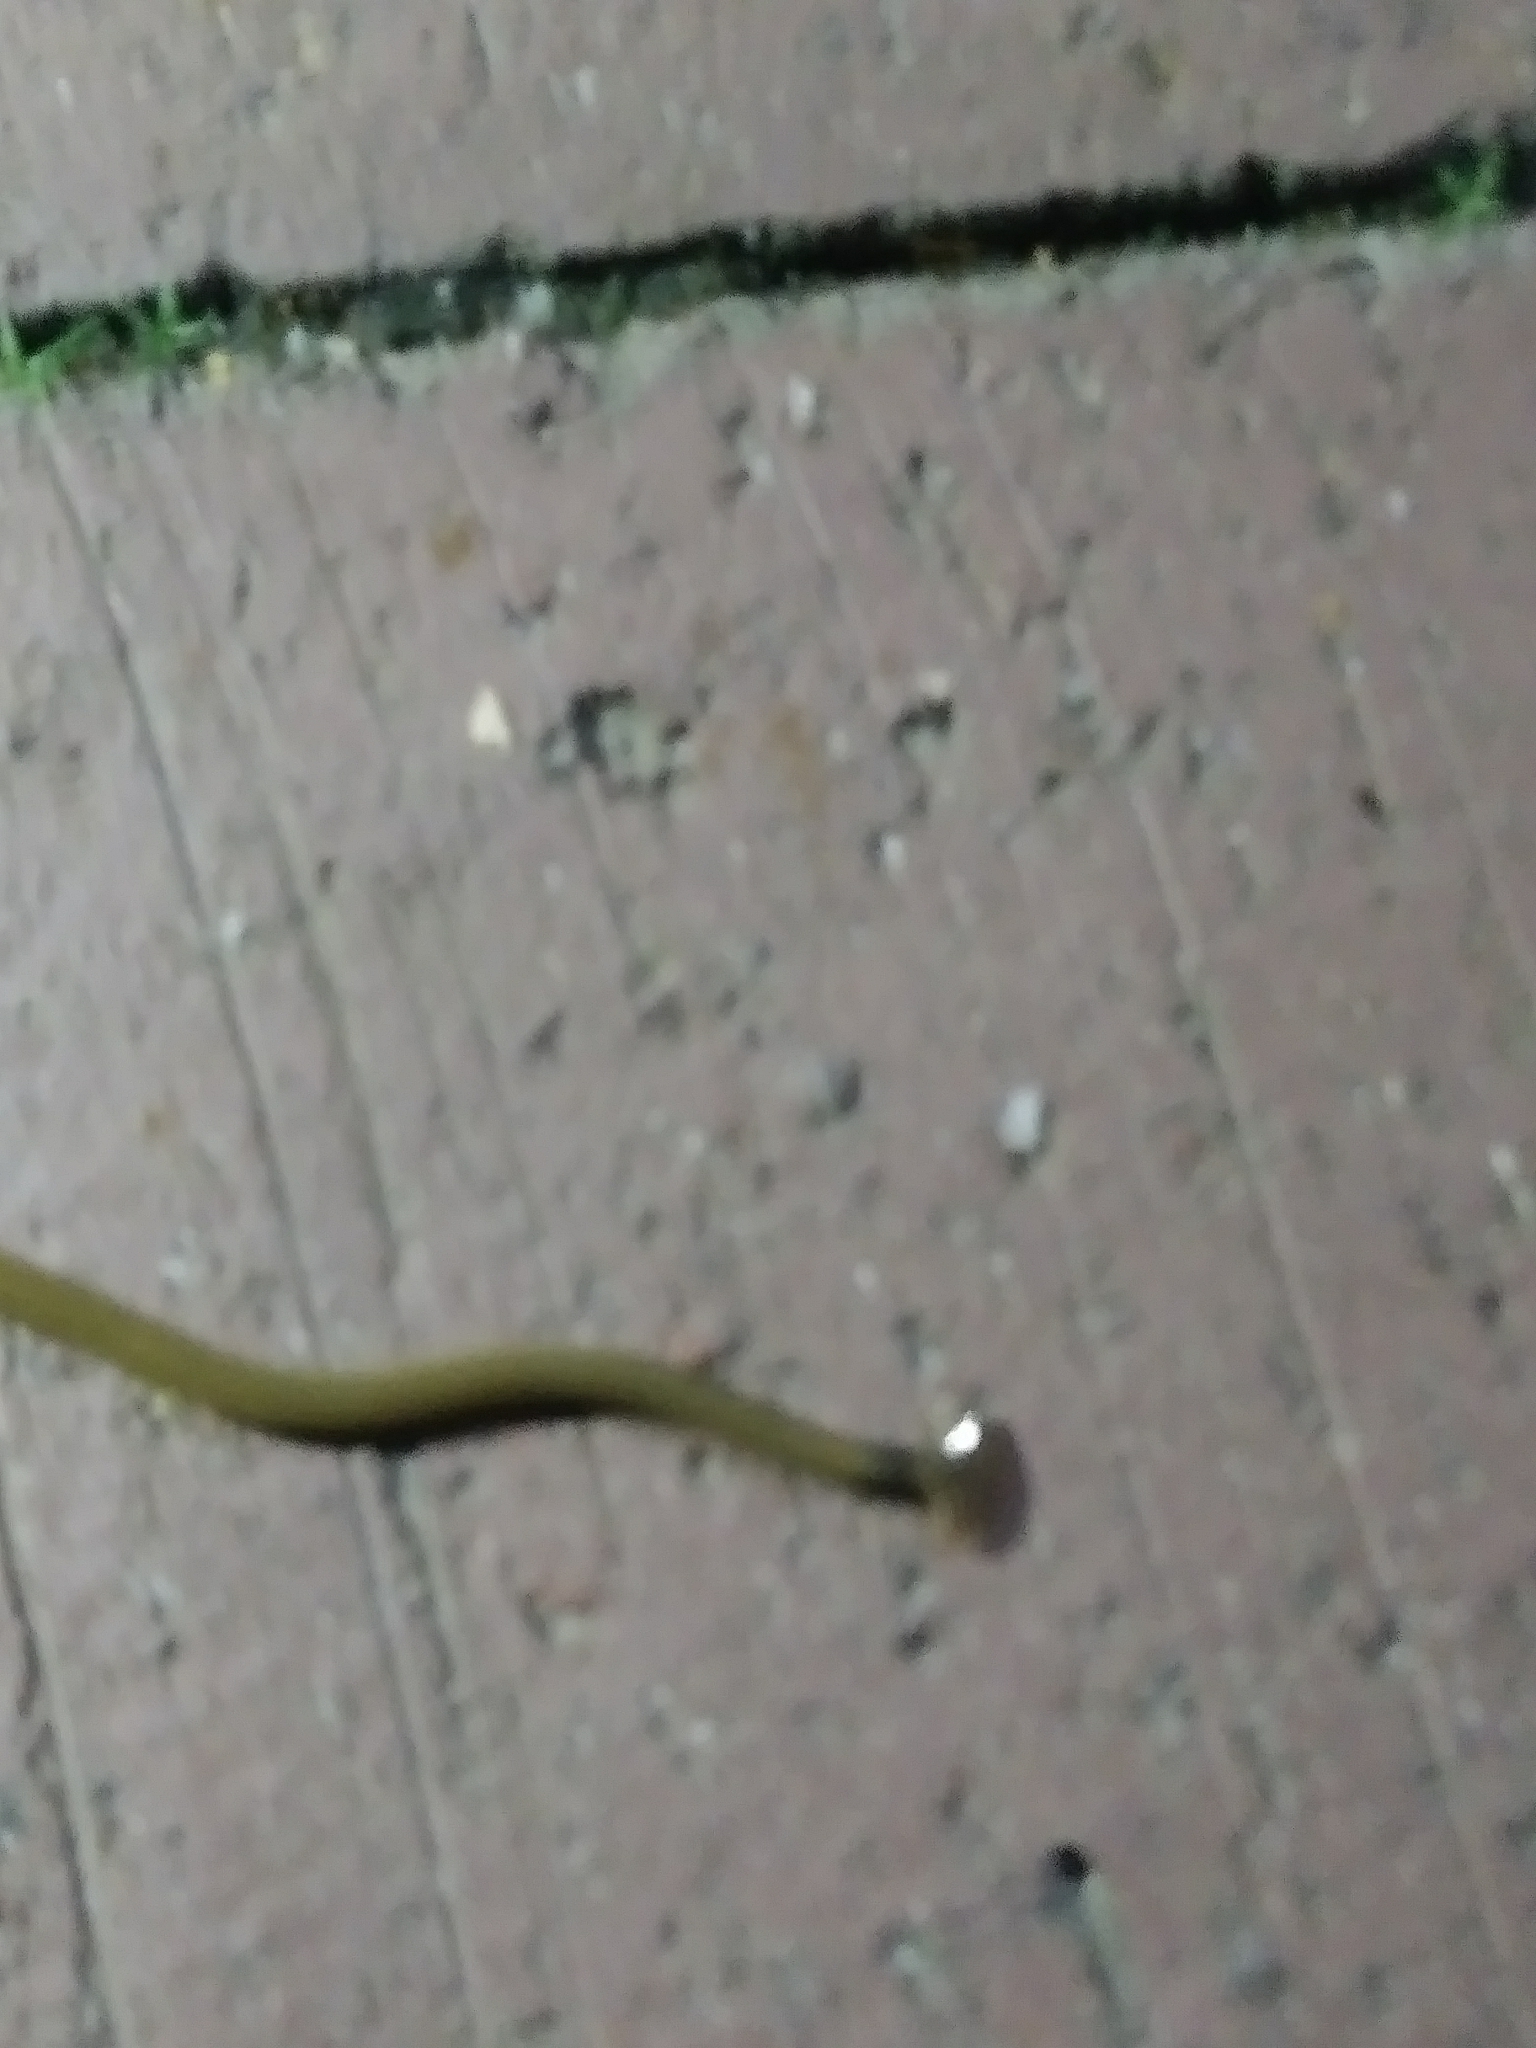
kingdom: Animalia
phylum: Platyhelminthes
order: Tricladida
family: Geoplanidae
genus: Bipalium
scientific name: Bipalium kewense
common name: Hammerhead flatworm
